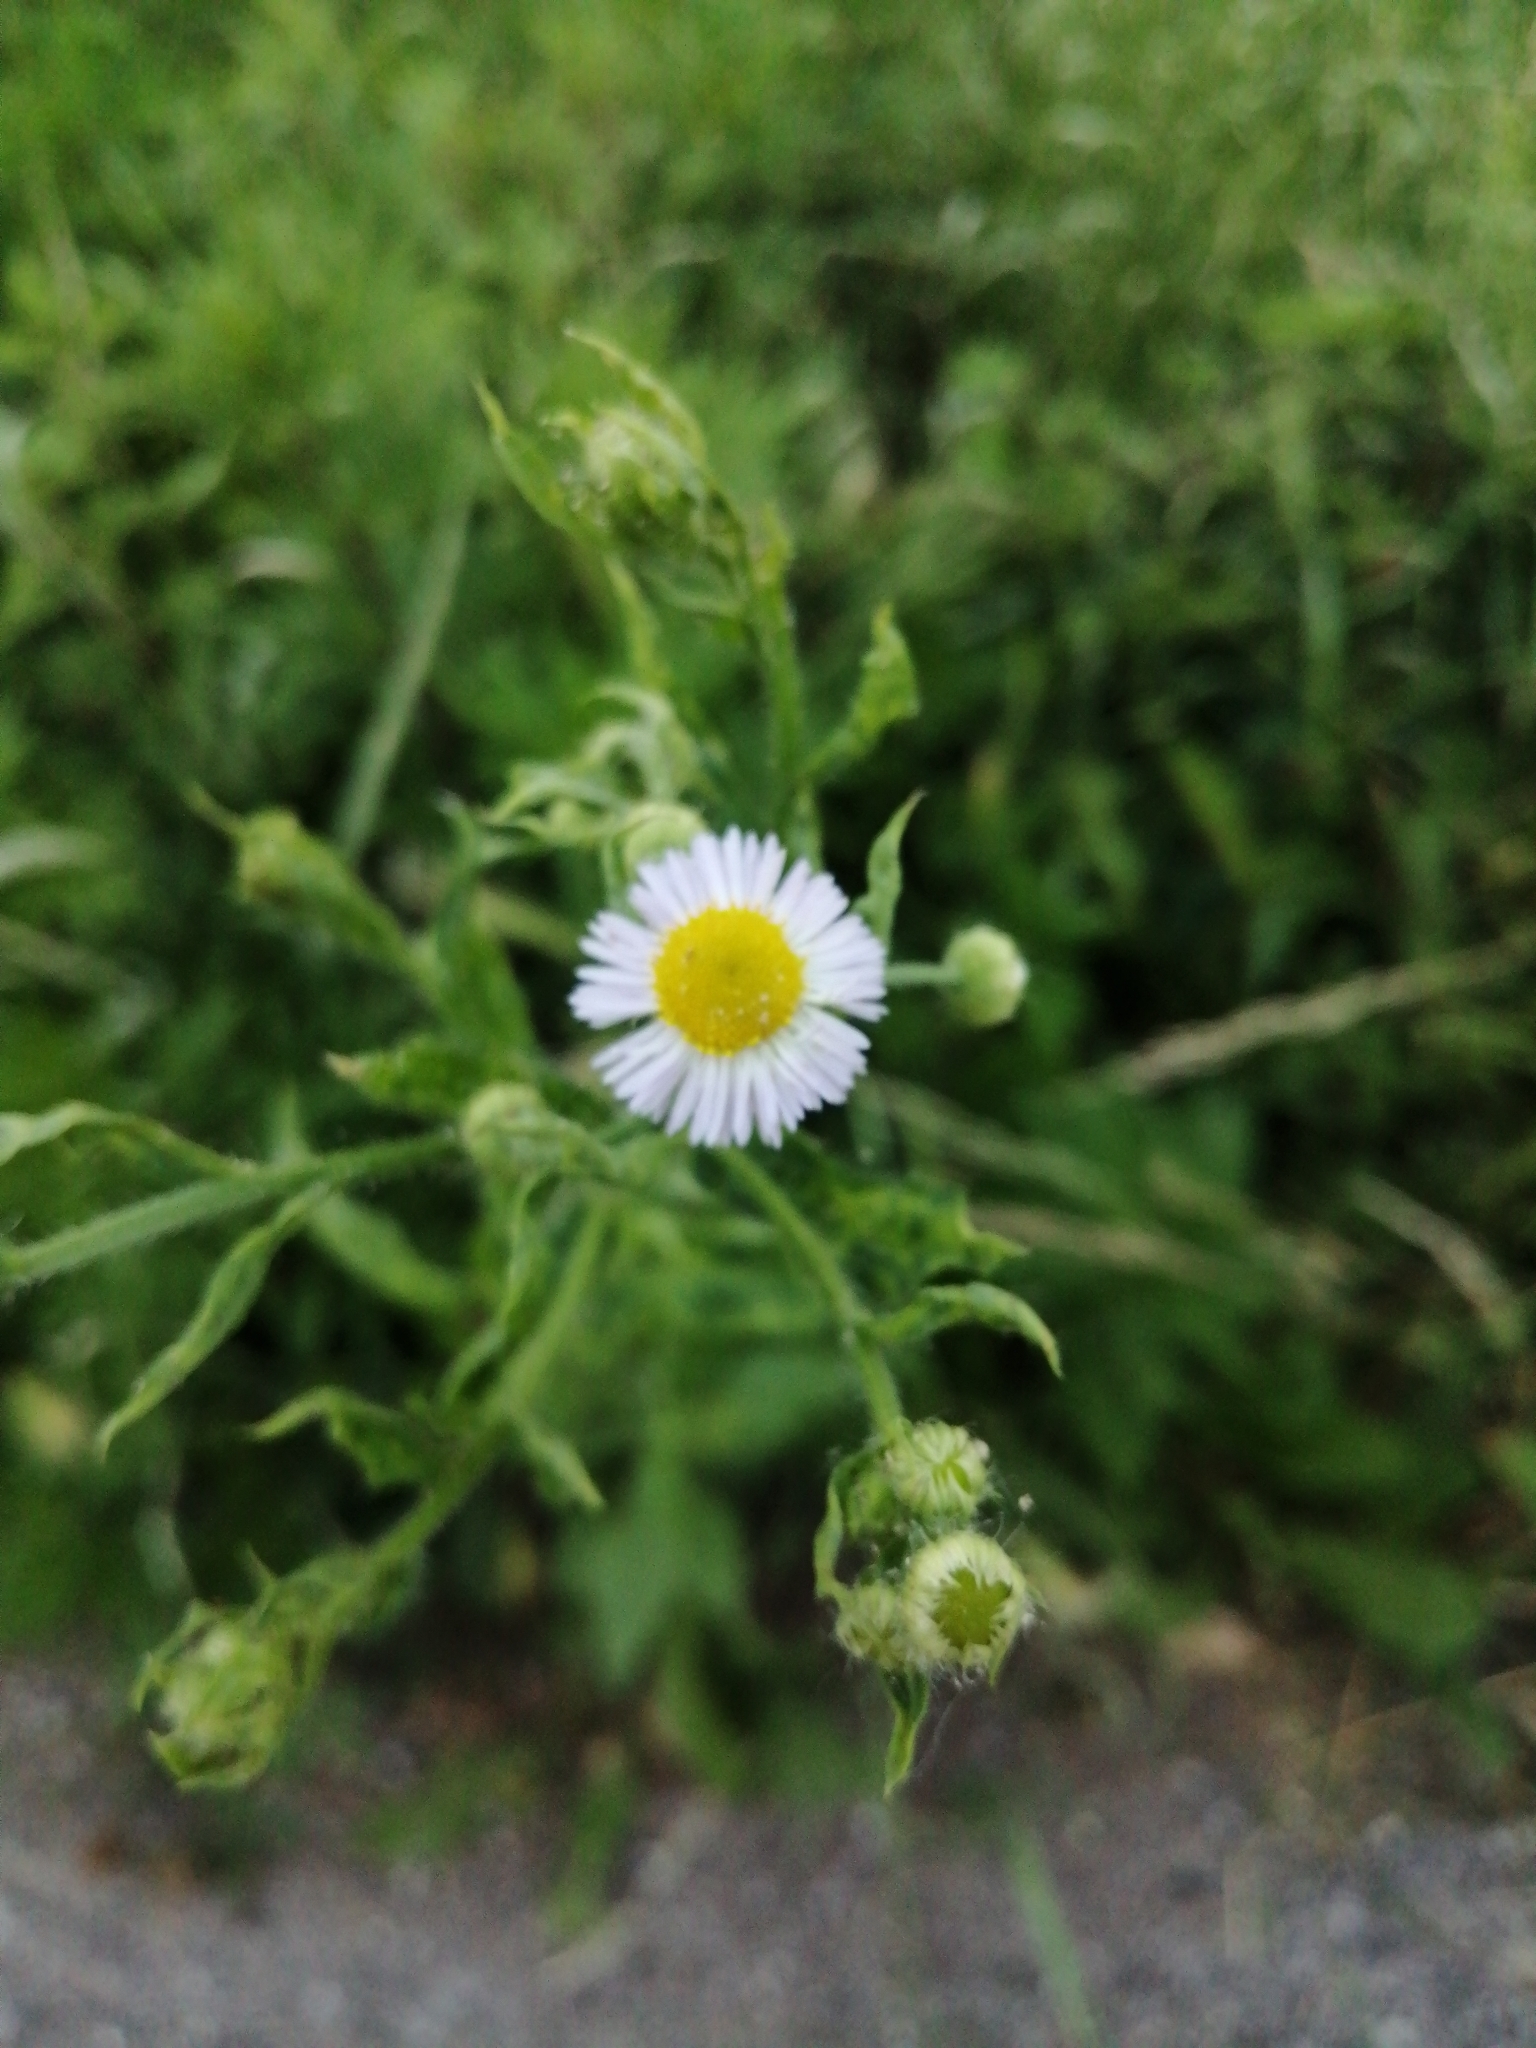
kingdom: Plantae
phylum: Tracheophyta
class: Magnoliopsida
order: Asterales
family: Asteraceae
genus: Erigeron
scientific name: Erigeron annuus
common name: Tall fleabane
